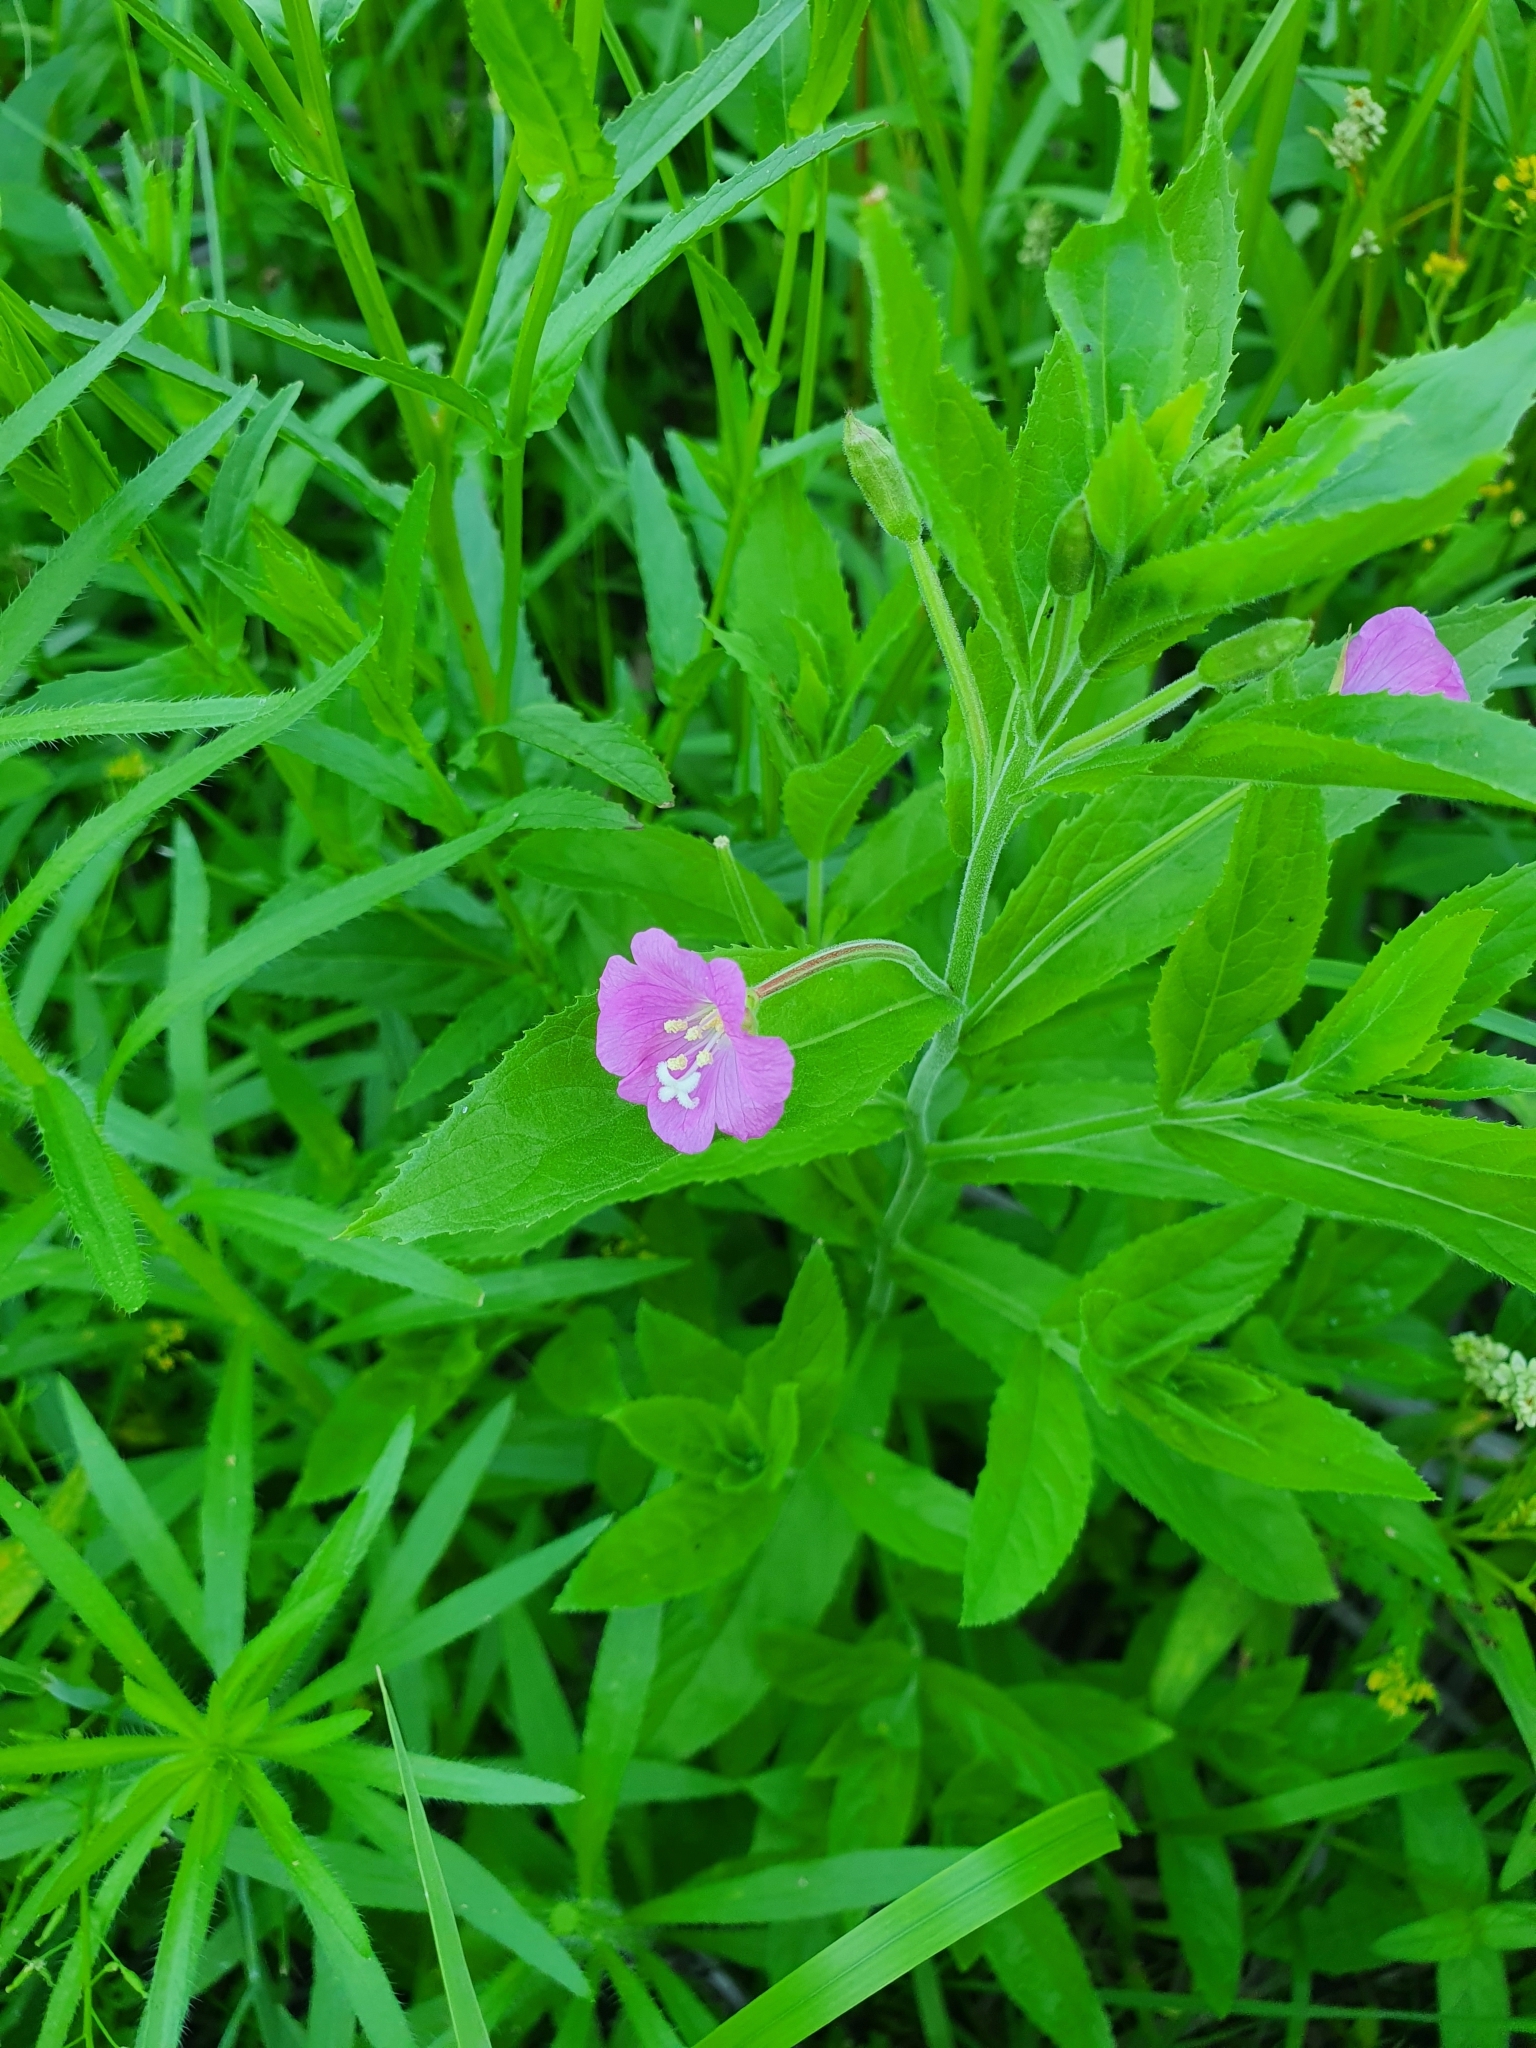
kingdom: Plantae
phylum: Tracheophyta
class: Magnoliopsida
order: Myrtales
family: Onagraceae
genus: Epilobium
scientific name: Epilobium hirsutum
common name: Great willowherb
